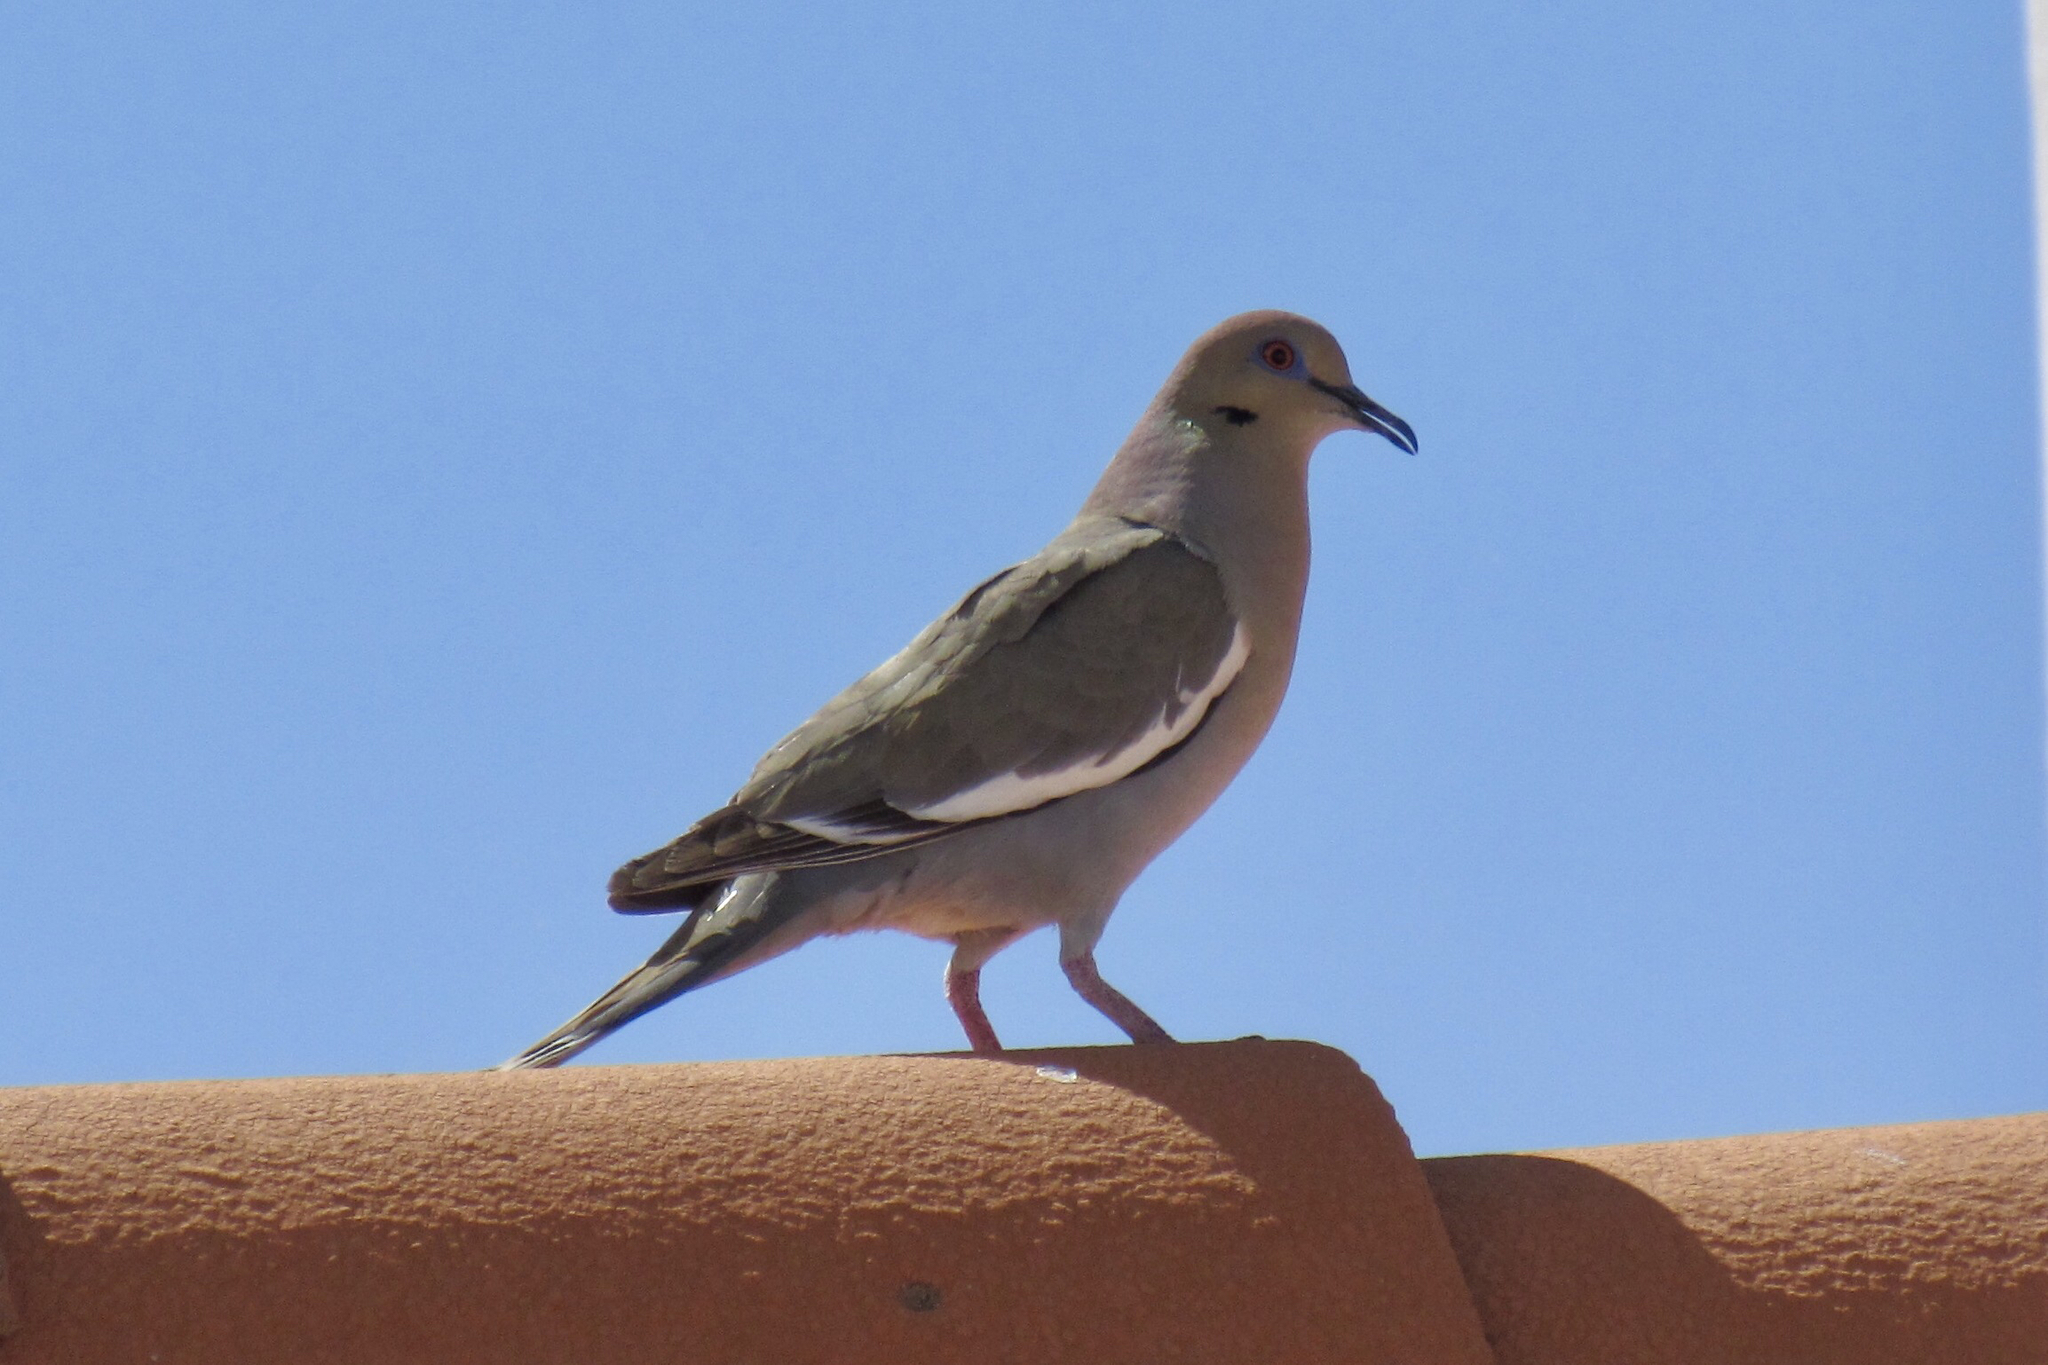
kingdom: Animalia
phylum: Chordata
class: Aves
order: Columbiformes
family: Columbidae
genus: Zenaida
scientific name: Zenaida asiatica
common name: White-winged dove
